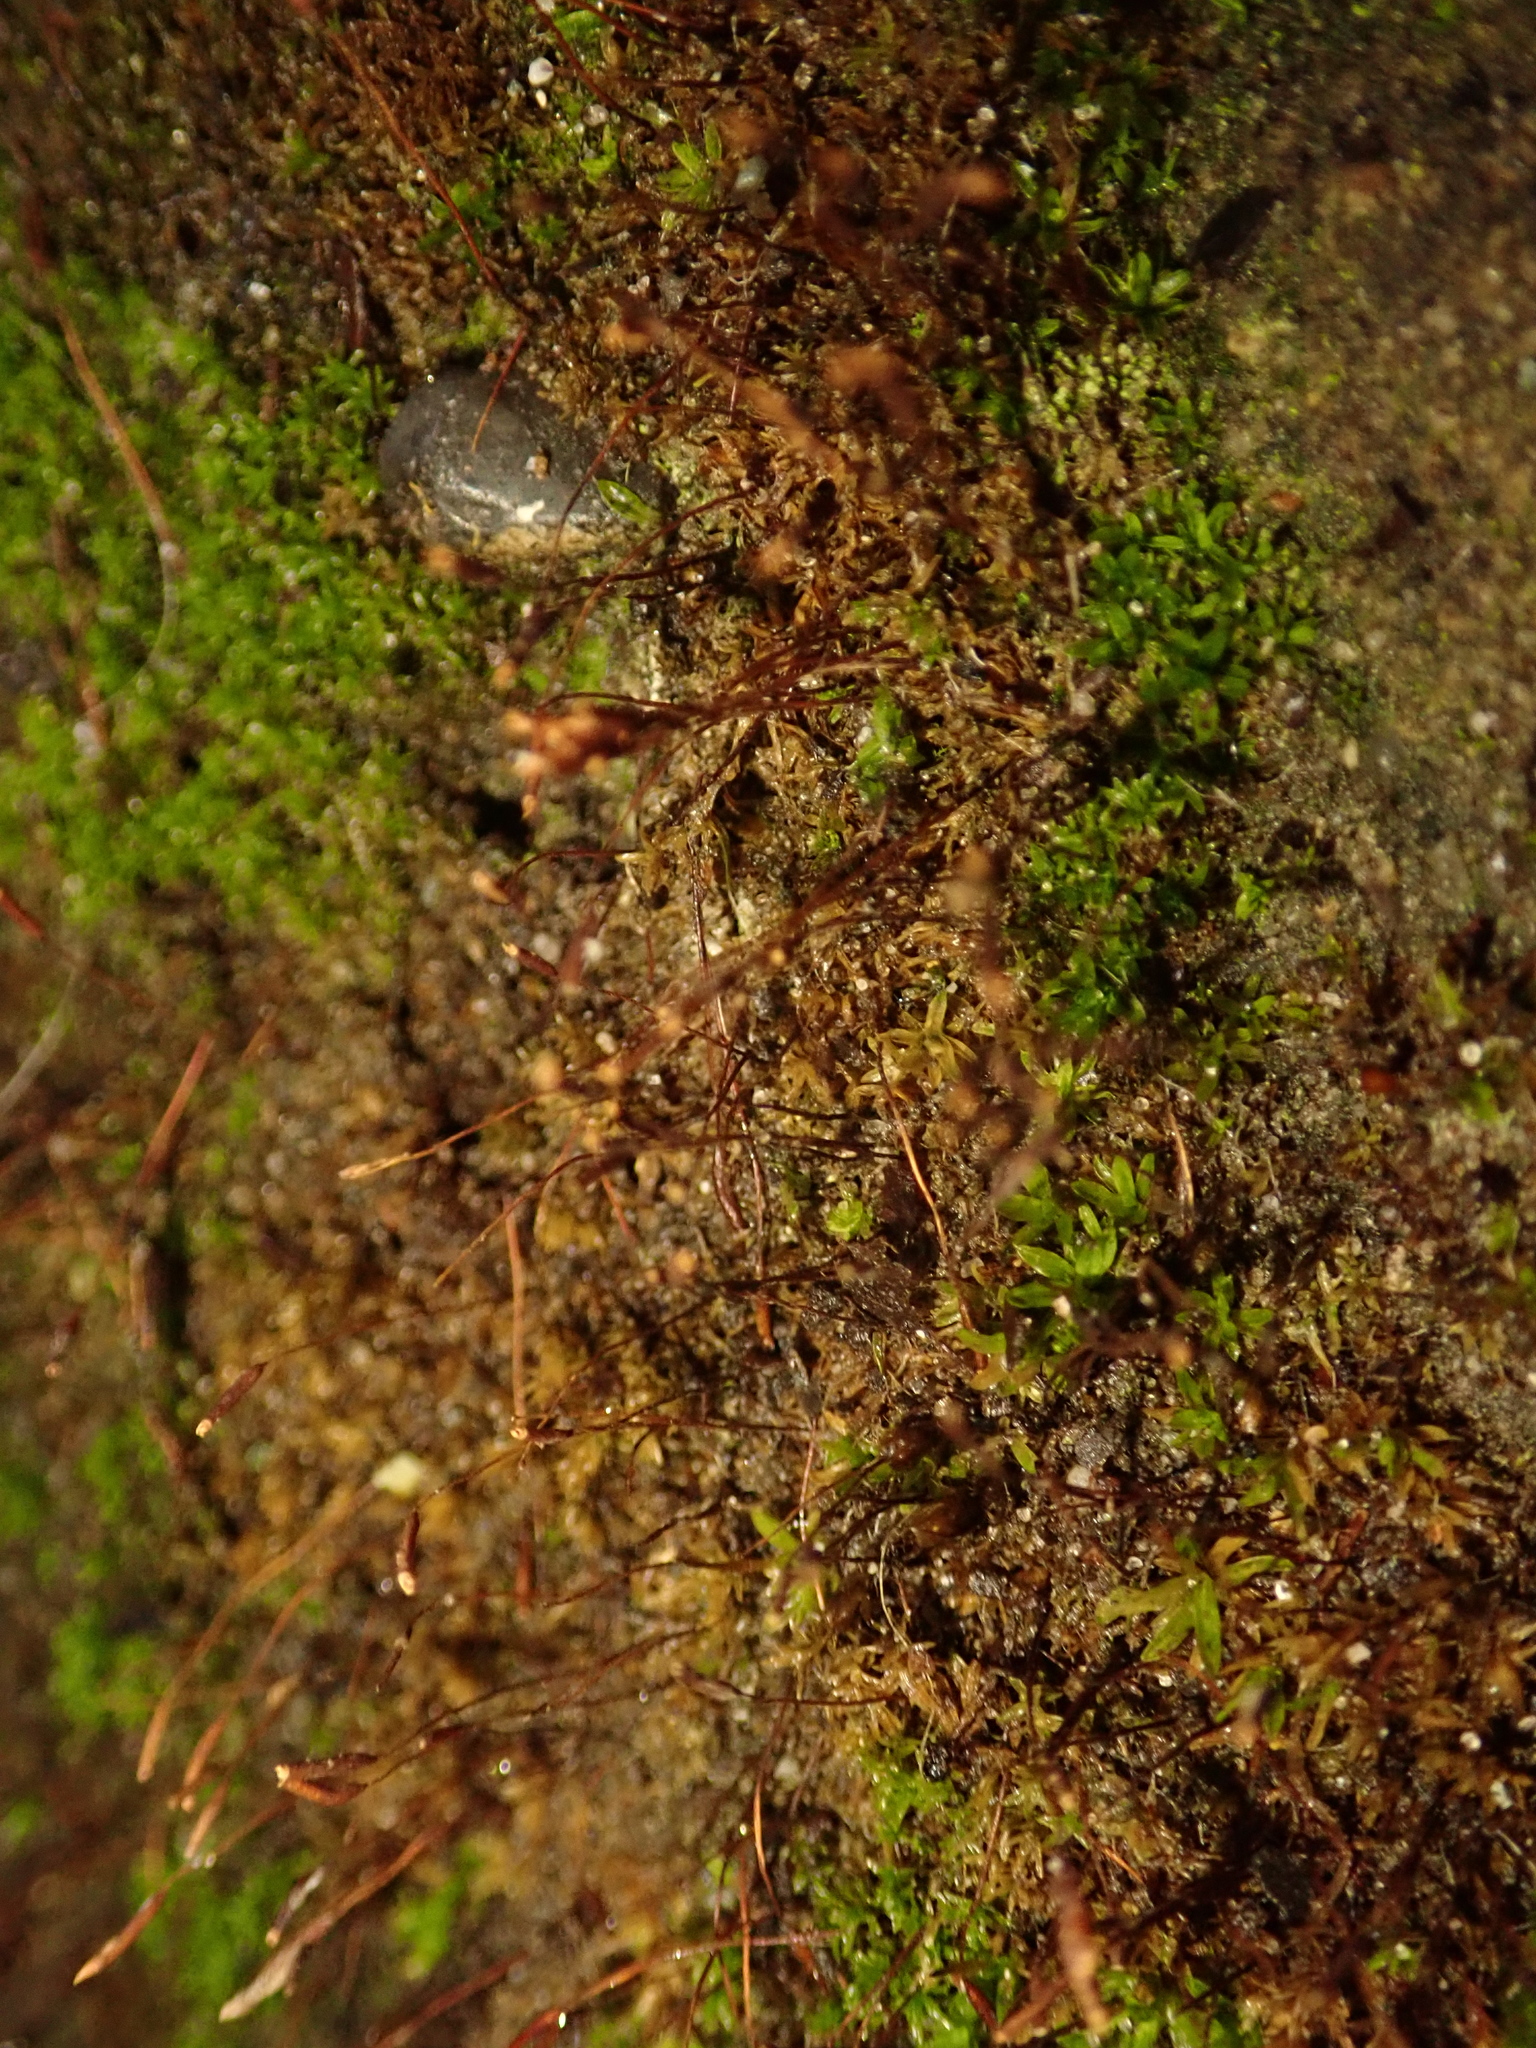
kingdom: Plantae
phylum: Bryophyta
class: Bryopsida
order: Pottiales
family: Pottiaceae
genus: Tortula
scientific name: Tortula muralis
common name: Wall screw-moss
